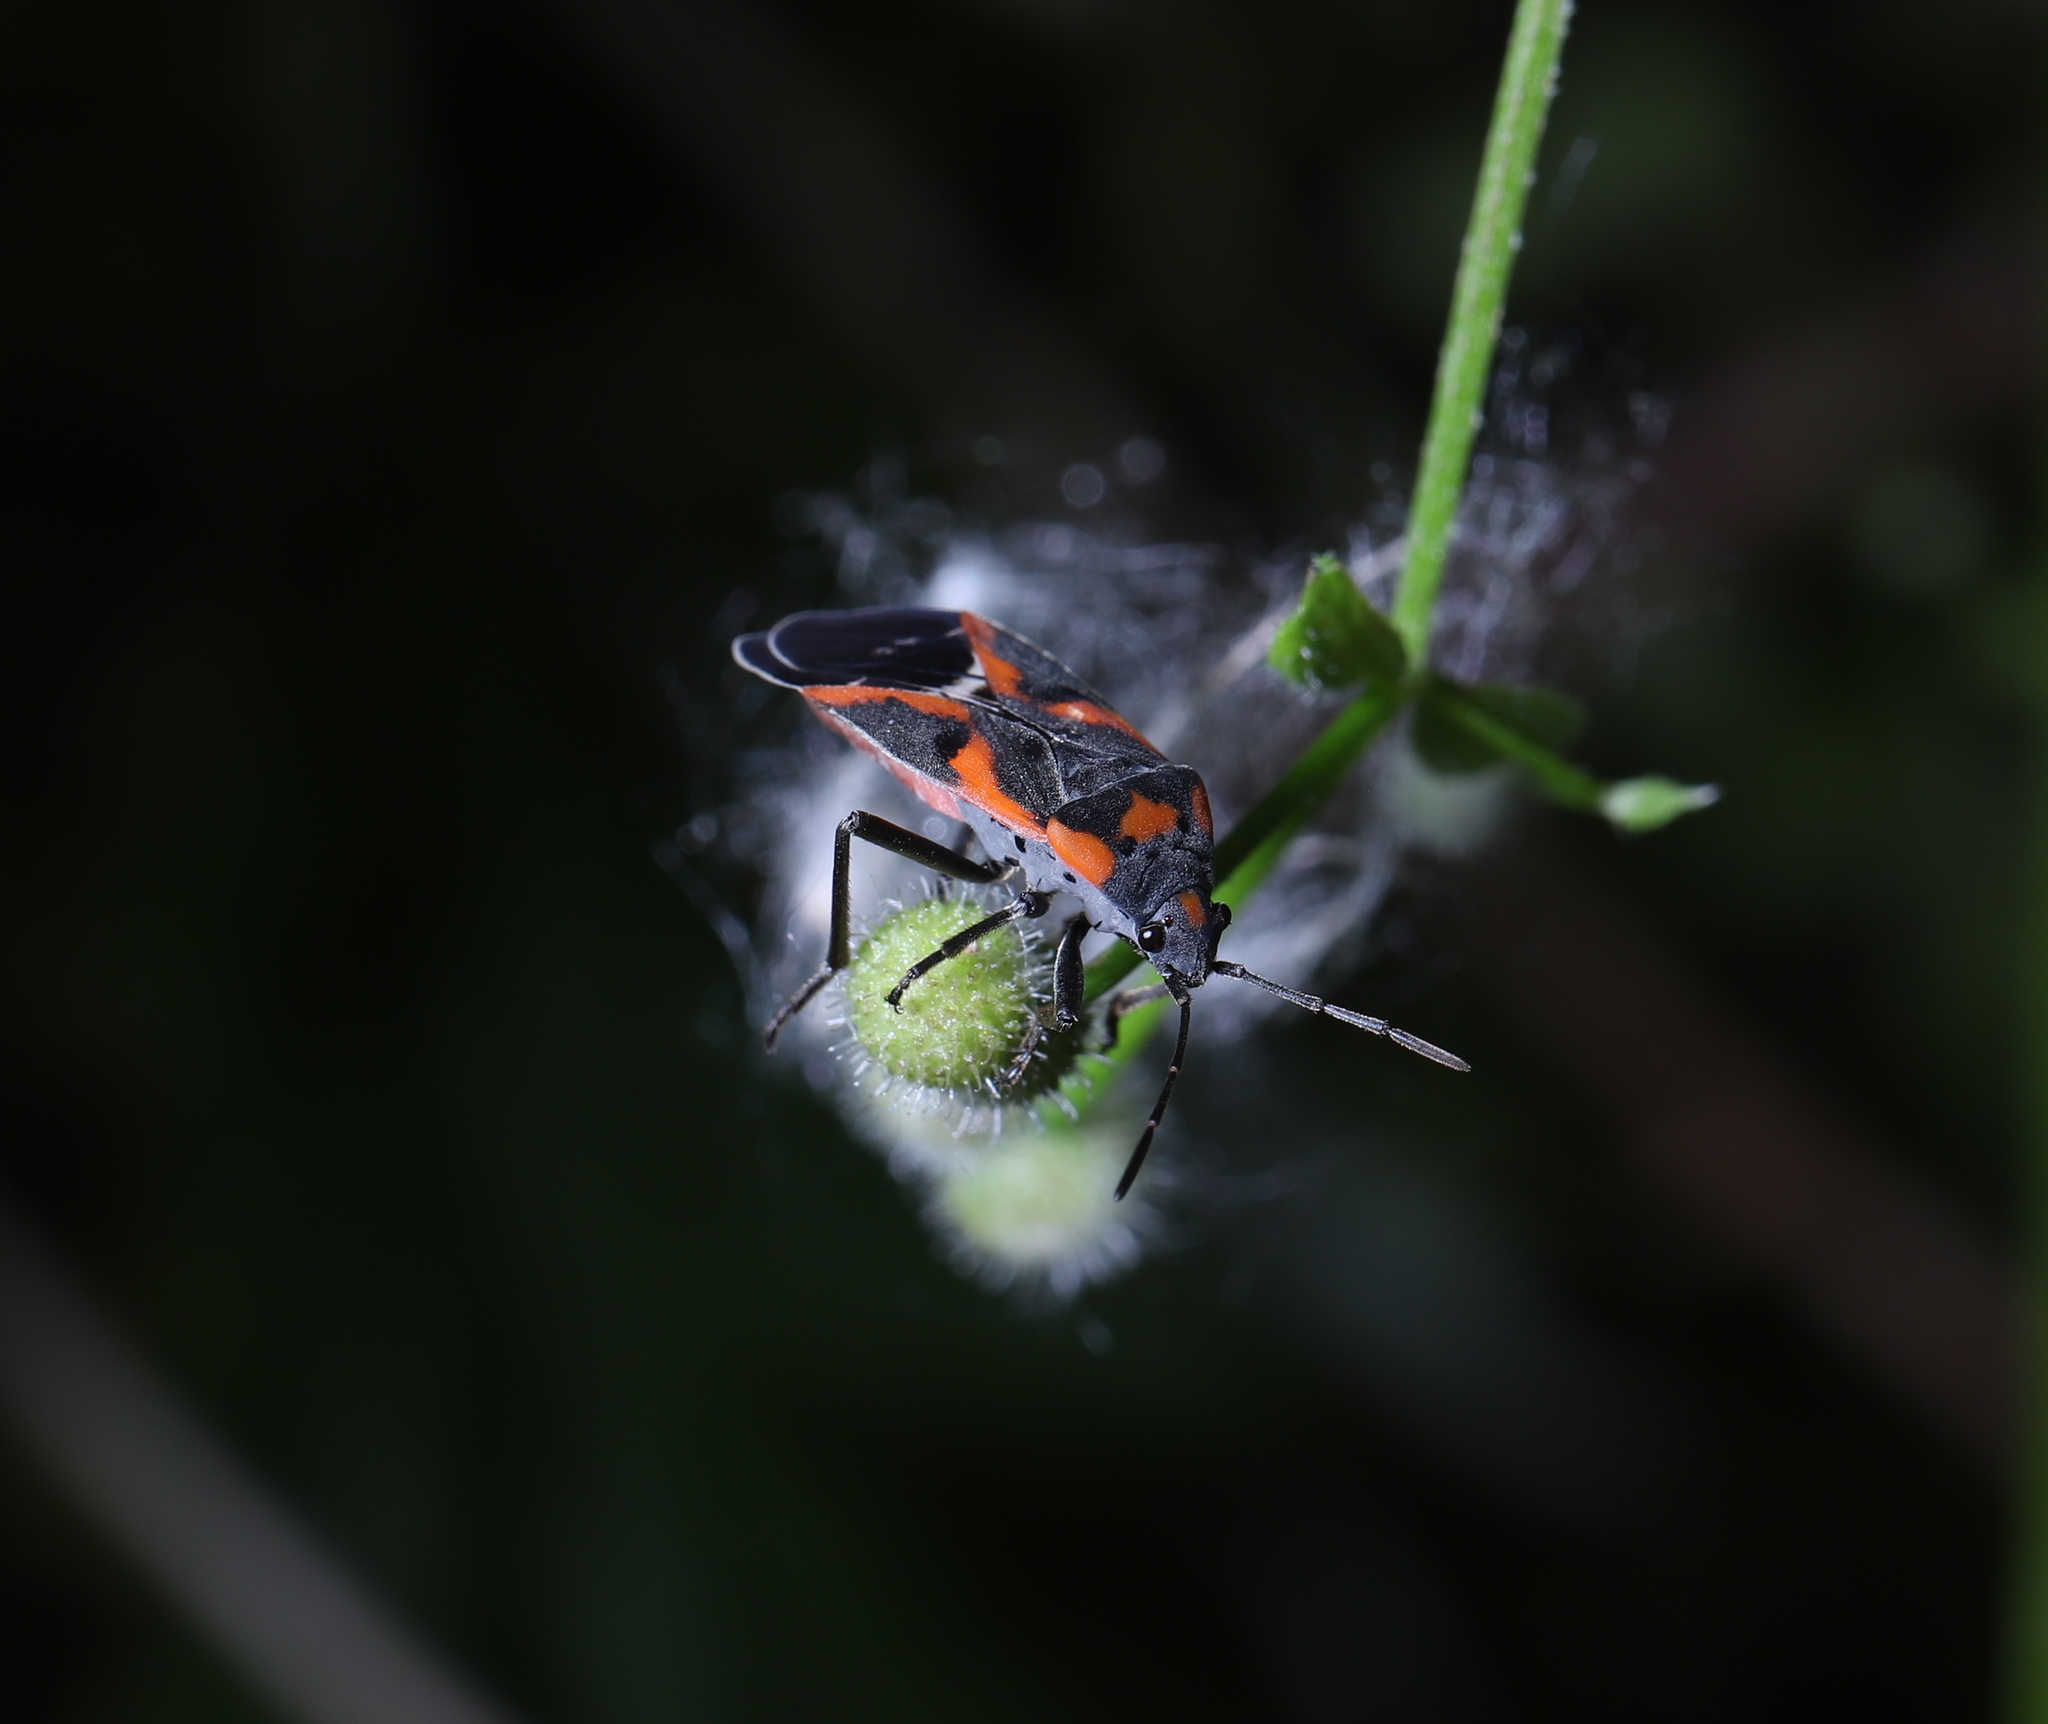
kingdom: Animalia
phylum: Arthropoda
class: Insecta
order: Hemiptera
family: Lygaeidae
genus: Lygaeus
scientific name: Lygaeus kalmii
